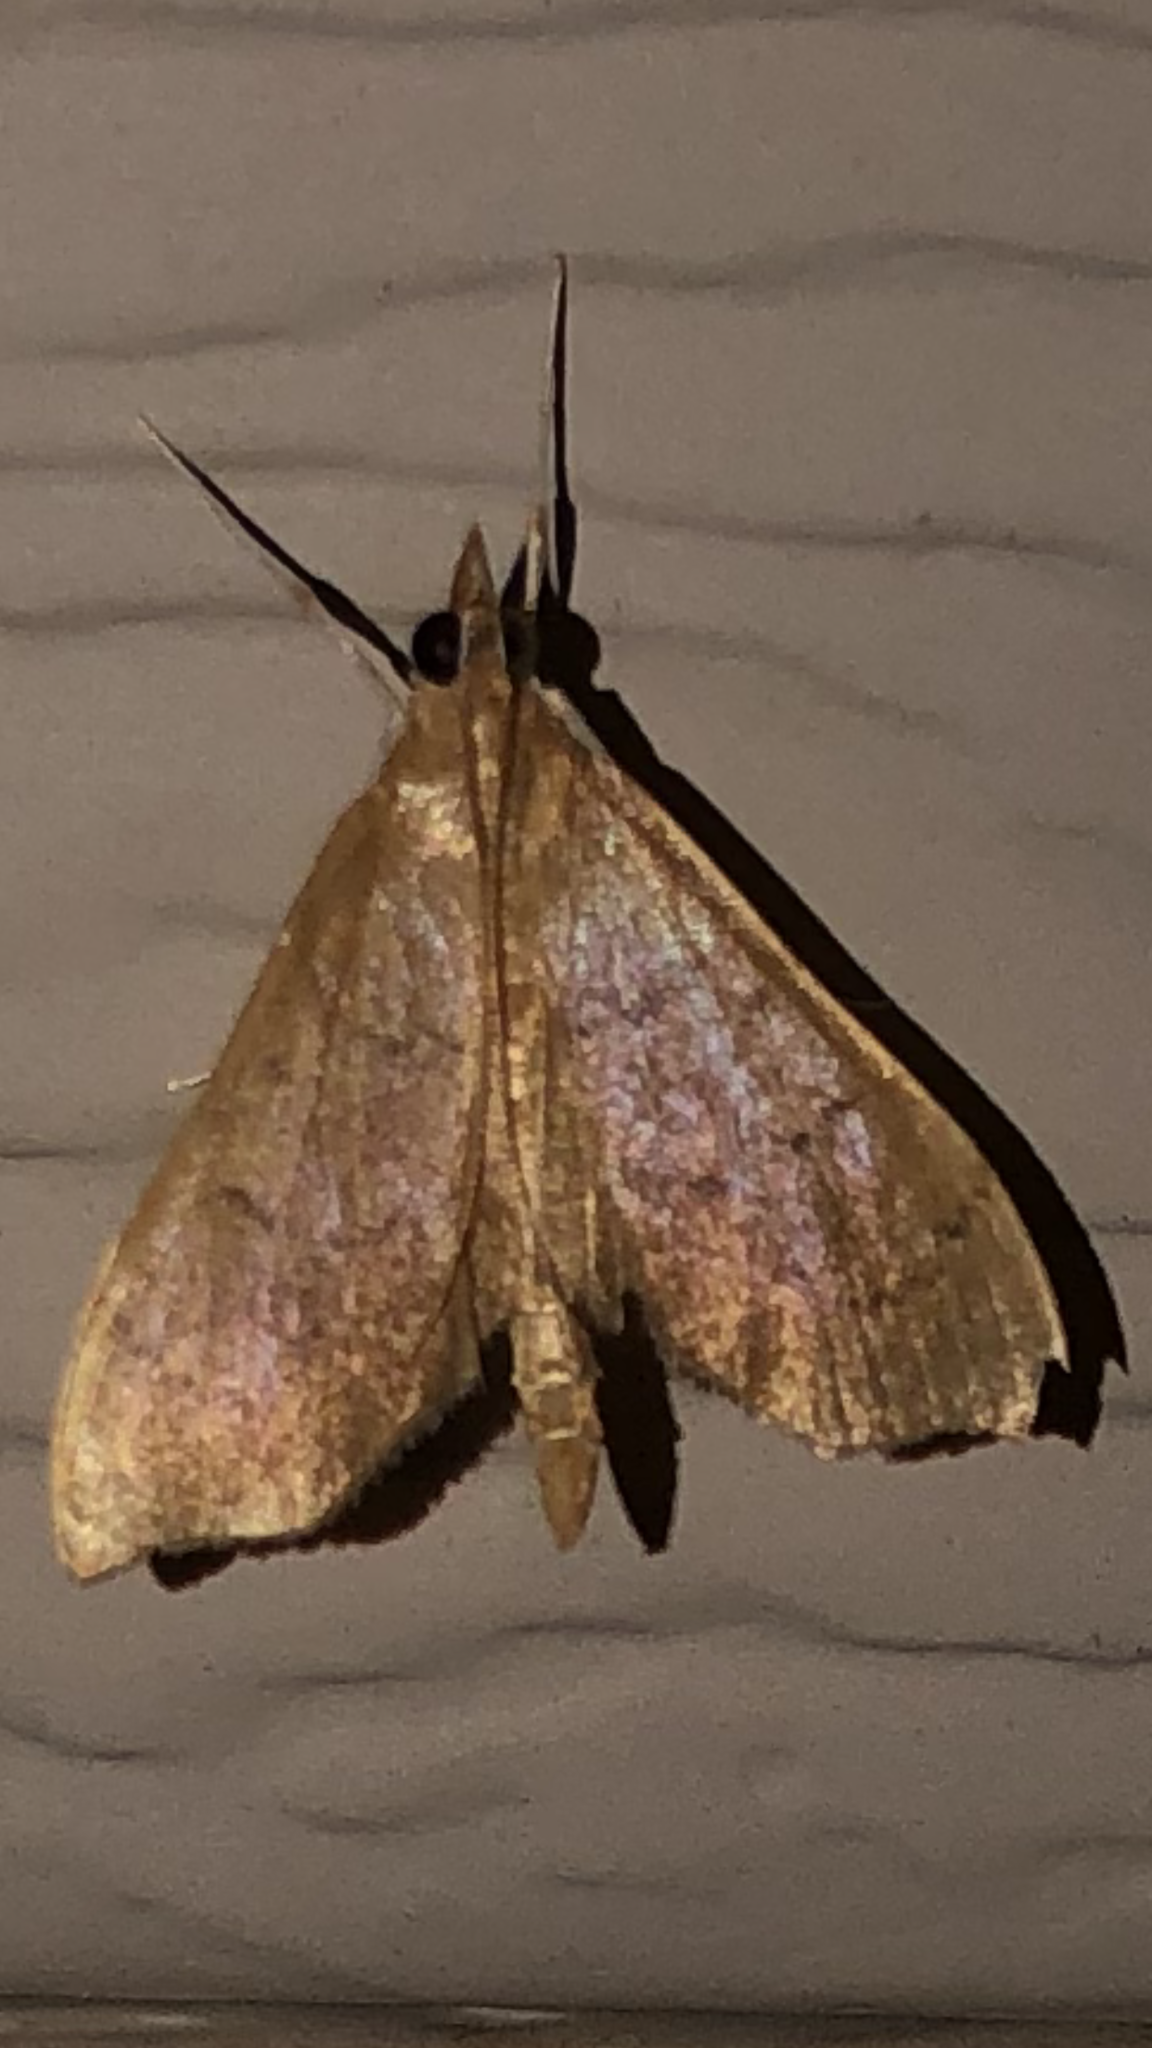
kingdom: Animalia
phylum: Arthropoda
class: Insecta
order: Lepidoptera
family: Crambidae
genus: Sericoplaga
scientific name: Sericoplaga externalis
